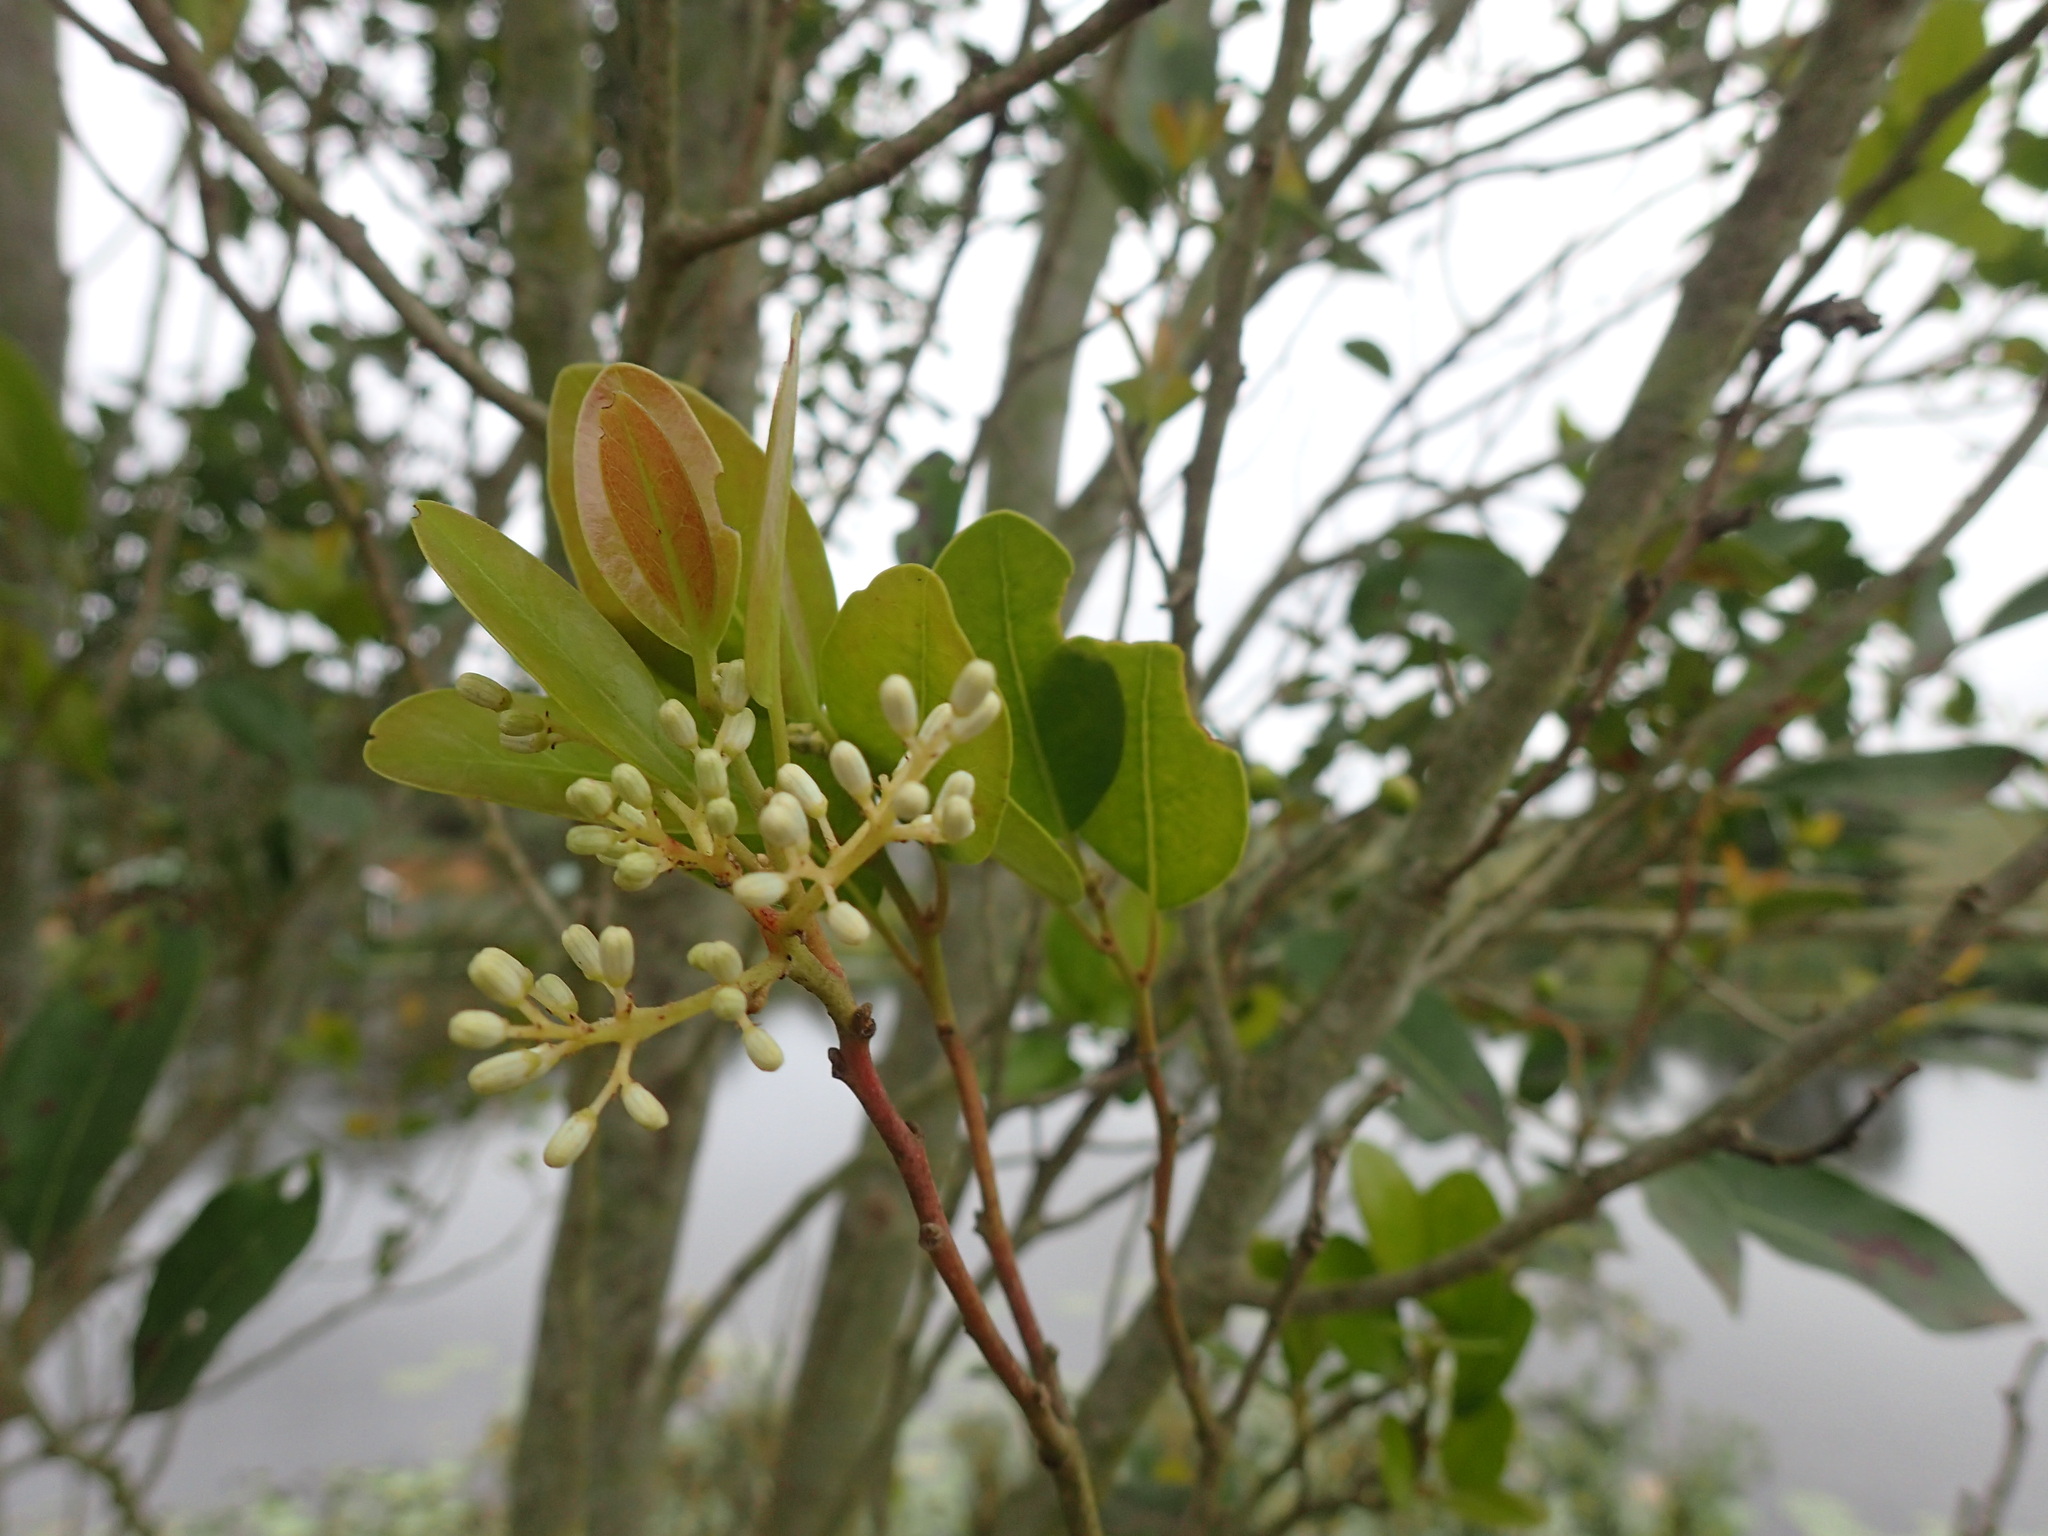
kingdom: Plantae
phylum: Tracheophyta
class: Magnoliopsida
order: Metteniusales
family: Metteniusaceae
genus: Apodytes
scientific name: Apodytes dimidiata
